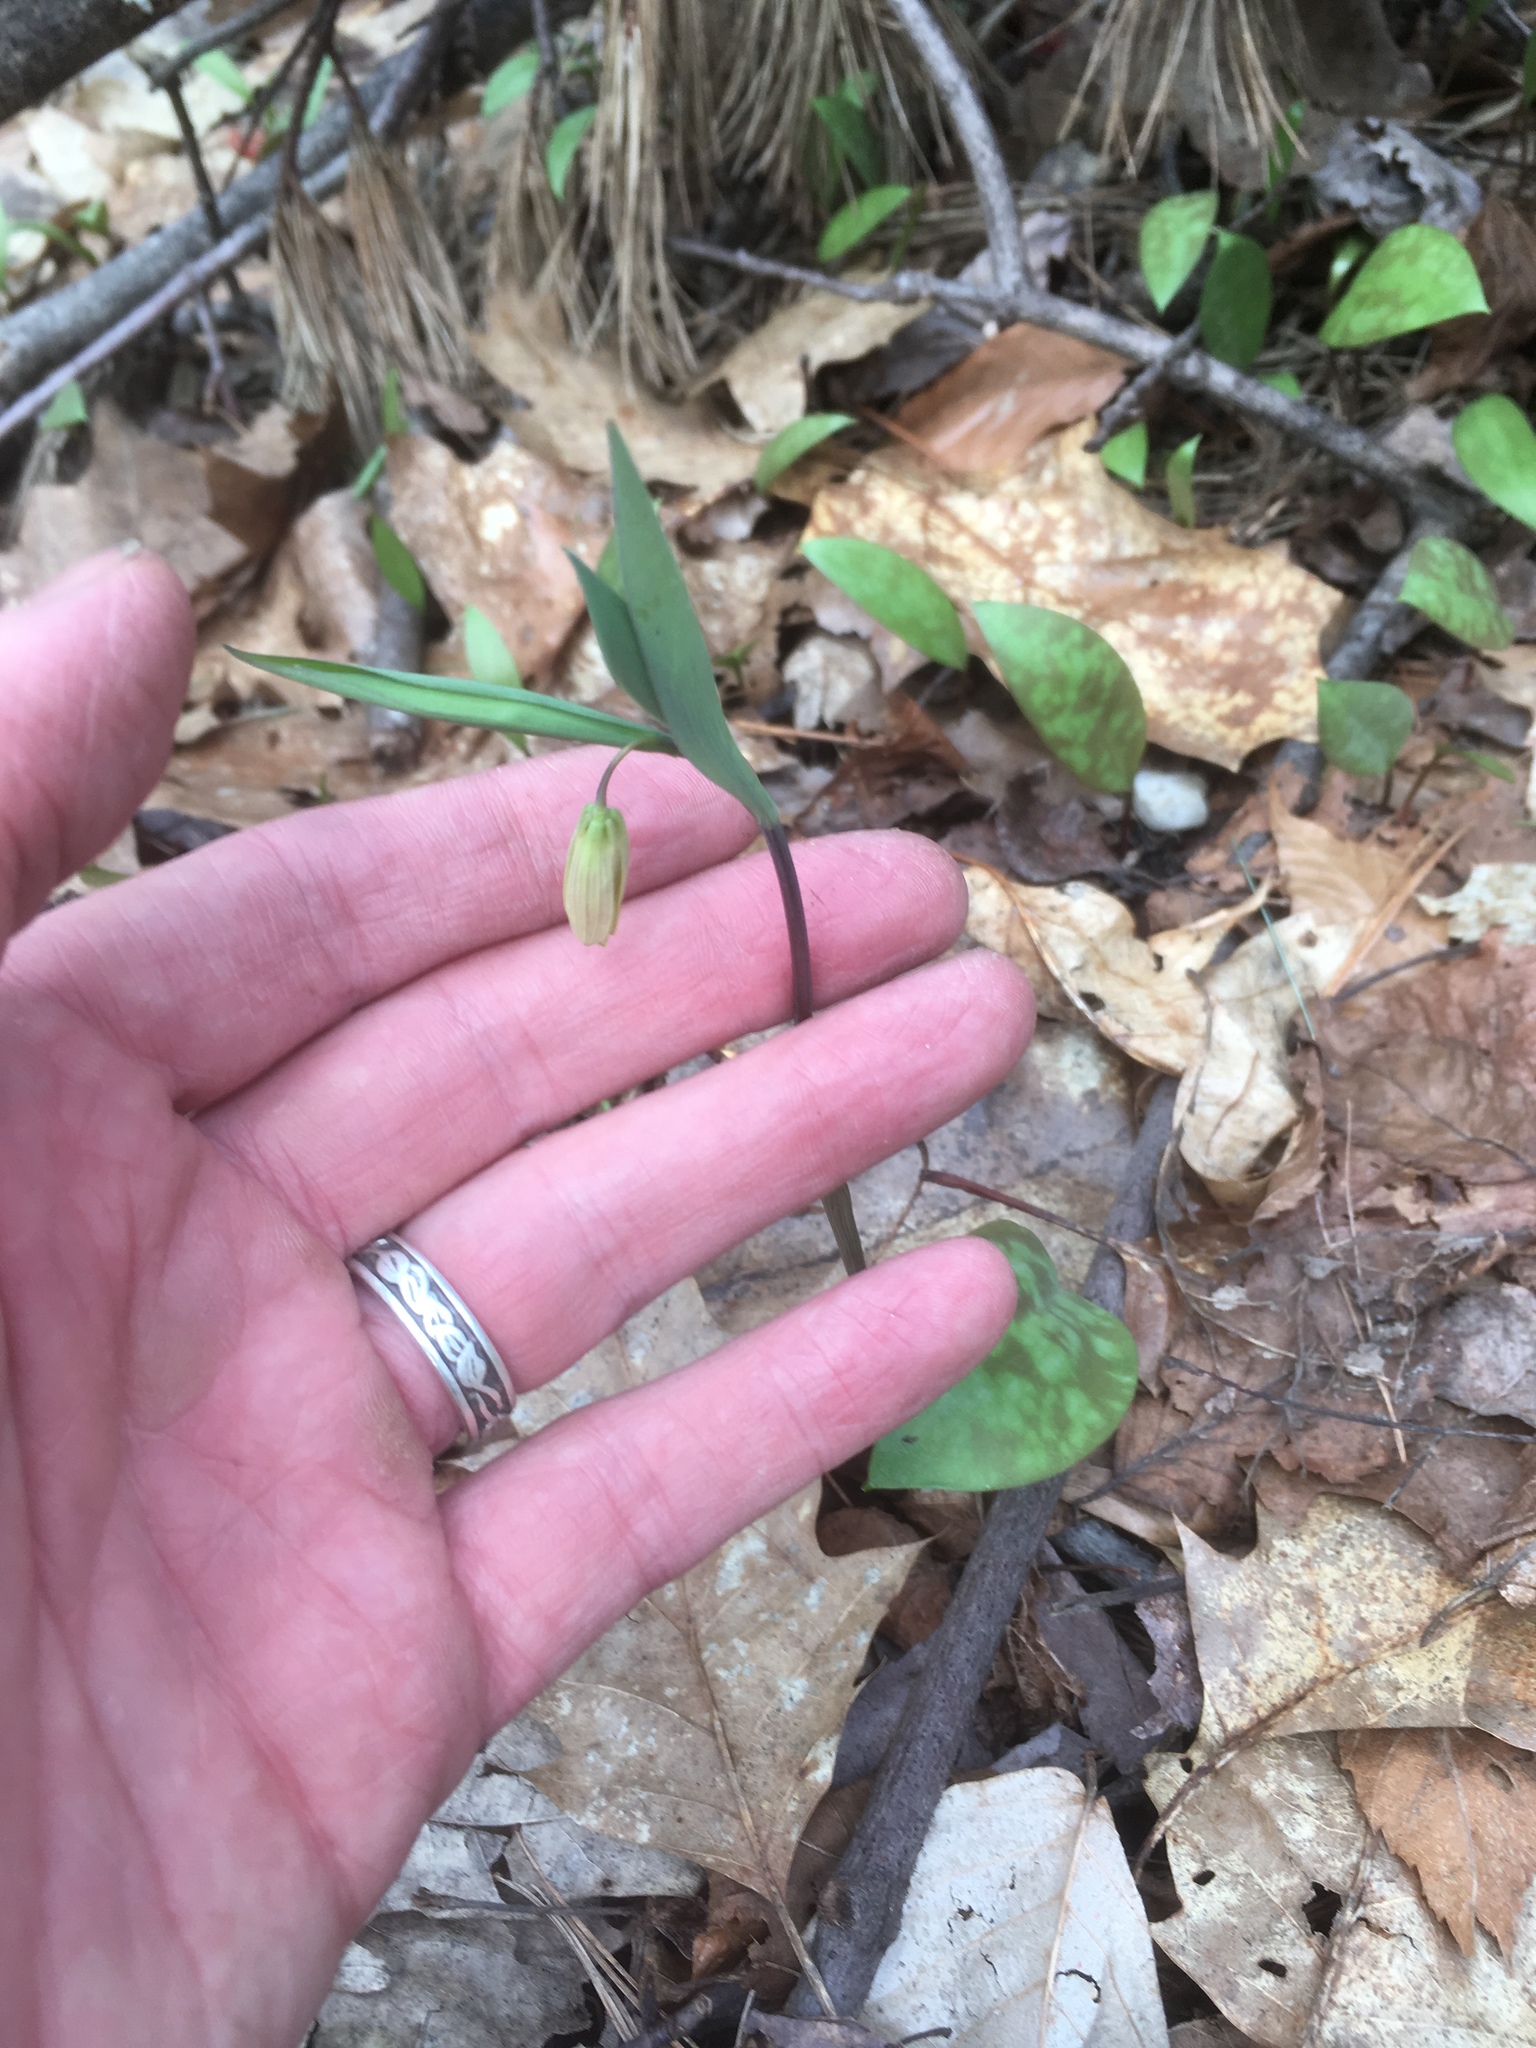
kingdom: Plantae
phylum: Tracheophyta
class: Liliopsida
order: Liliales
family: Colchicaceae
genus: Uvularia
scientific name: Uvularia sessilifolia
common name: Straw-lily
